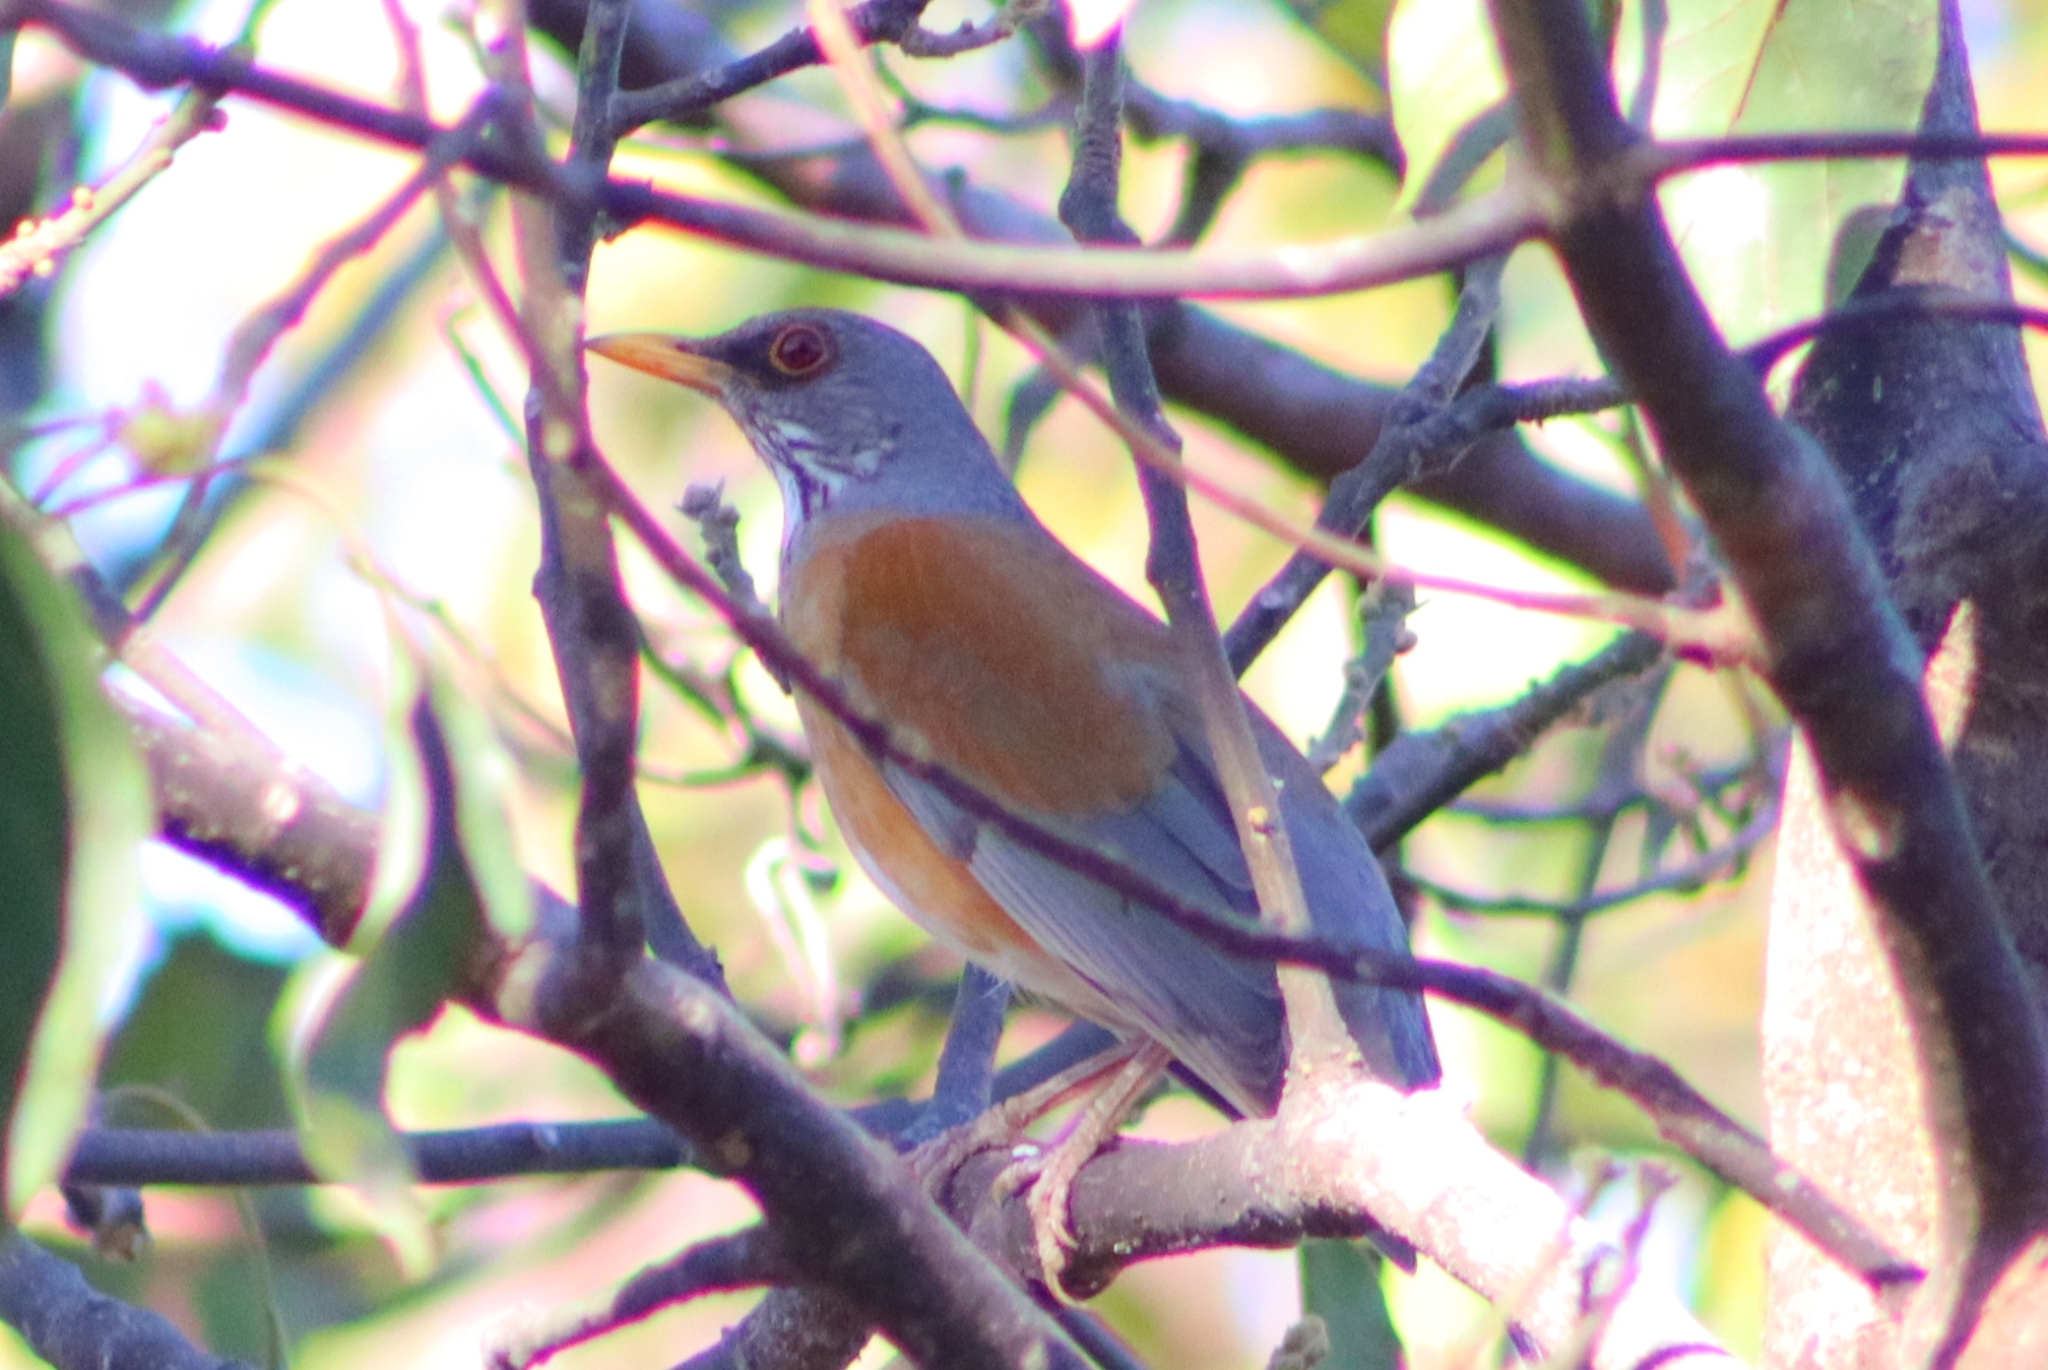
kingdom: Animalia
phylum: Chordata
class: Aves
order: Passeriformes
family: Turdidae
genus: Turdus
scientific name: Turdus rufopalliatus
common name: Rufous-backed robin
